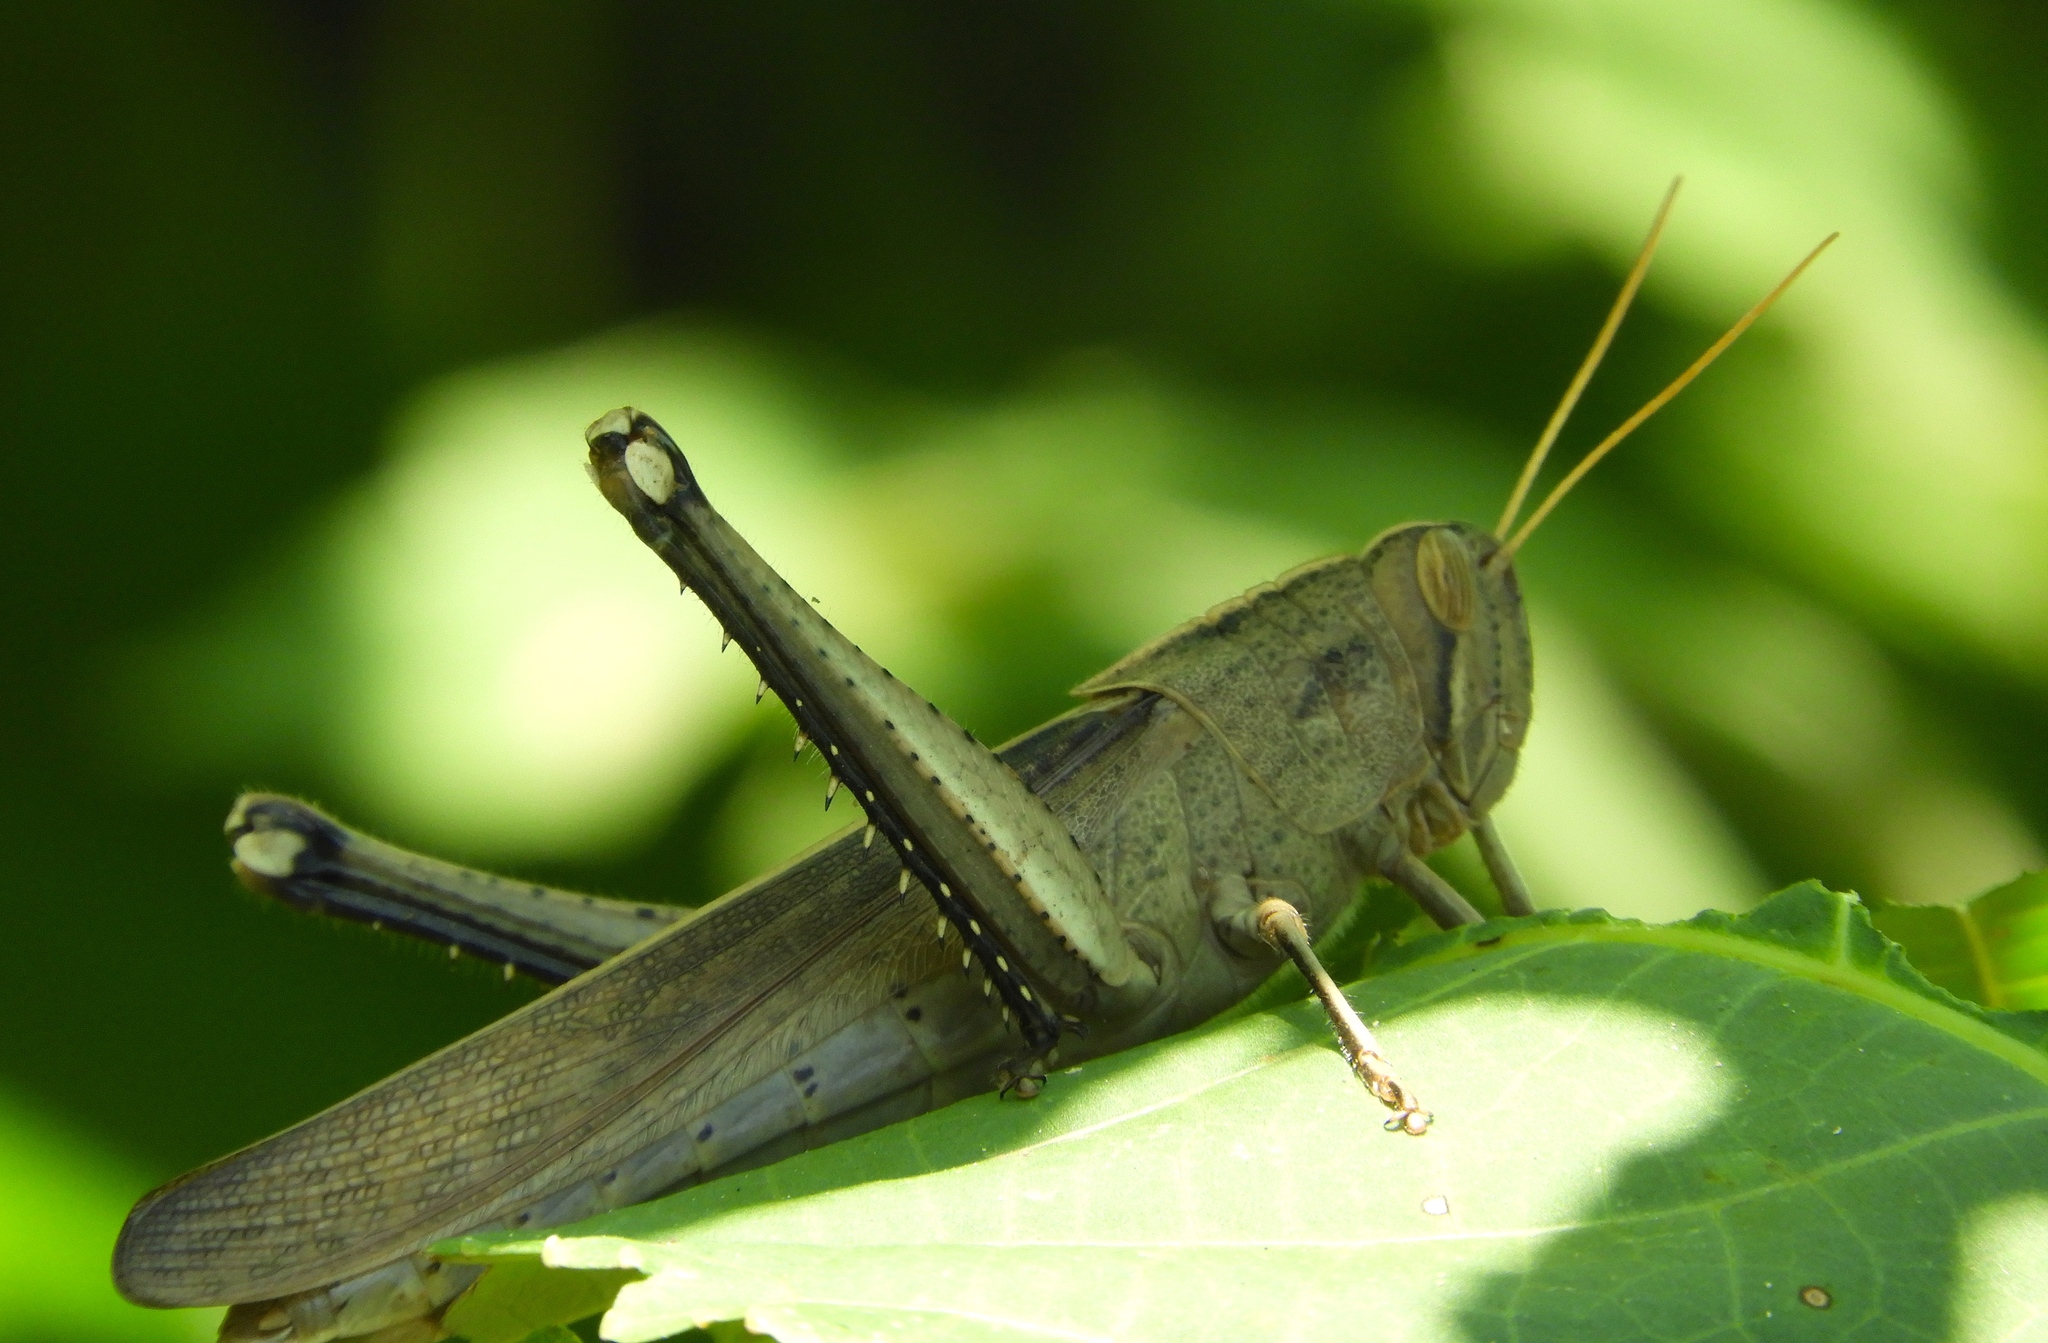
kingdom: Animalia
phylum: Arthropoda
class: Insecta
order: Orthoptera
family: Acrididae
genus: Schistocerca
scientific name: Schistocerca
